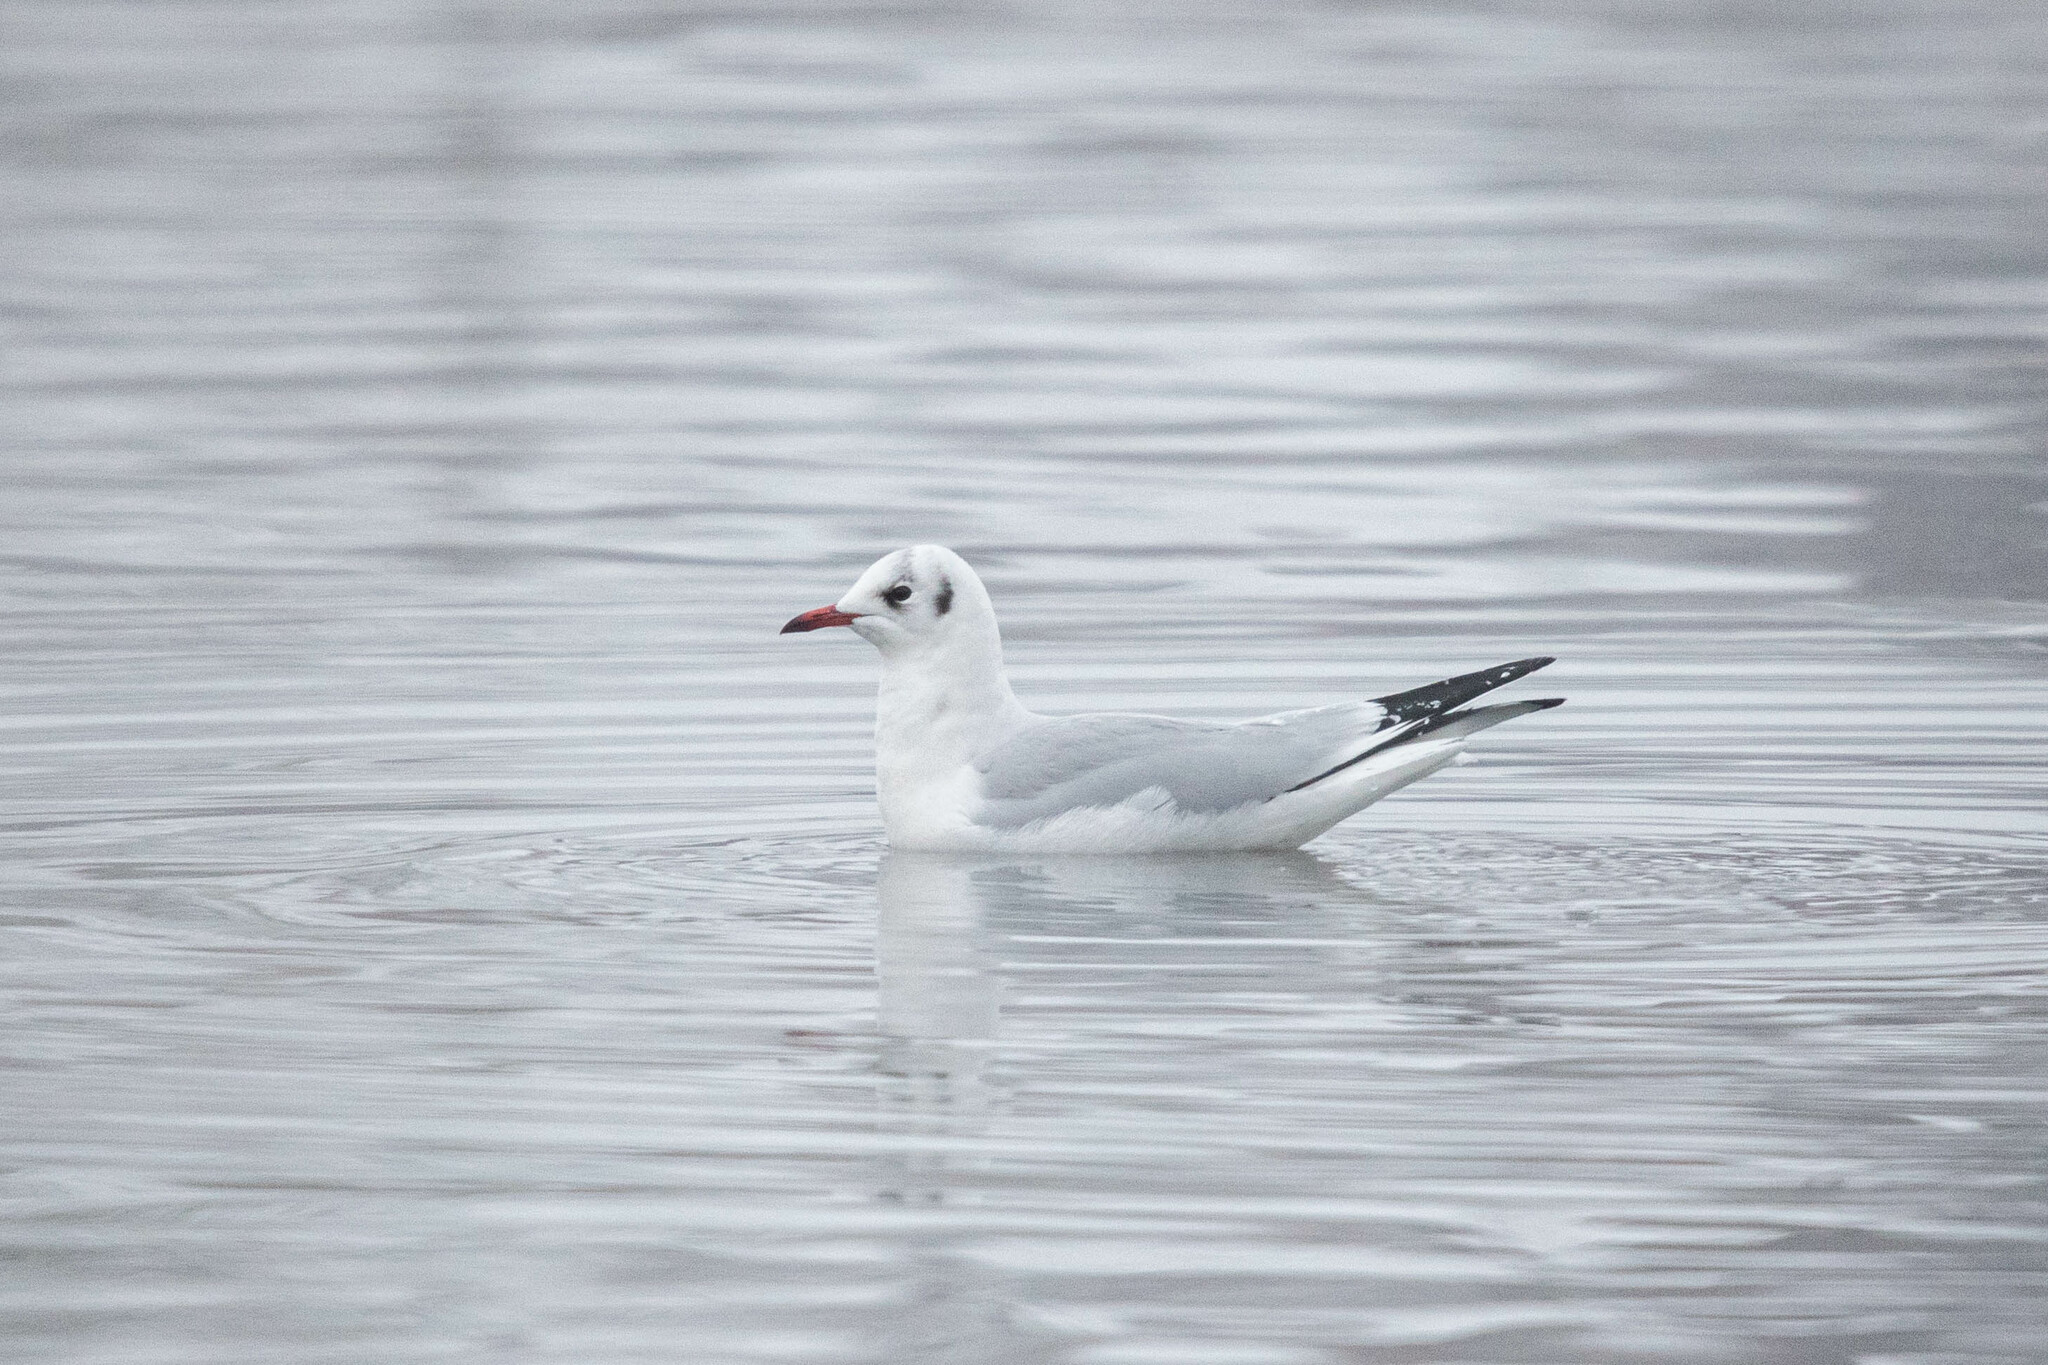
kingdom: Animalia
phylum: Chordata
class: Aves
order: Charadriiformes
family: Laridae
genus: Chroicocephalus
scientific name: Chroicocephalus ridibundus
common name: Black-headed gull
